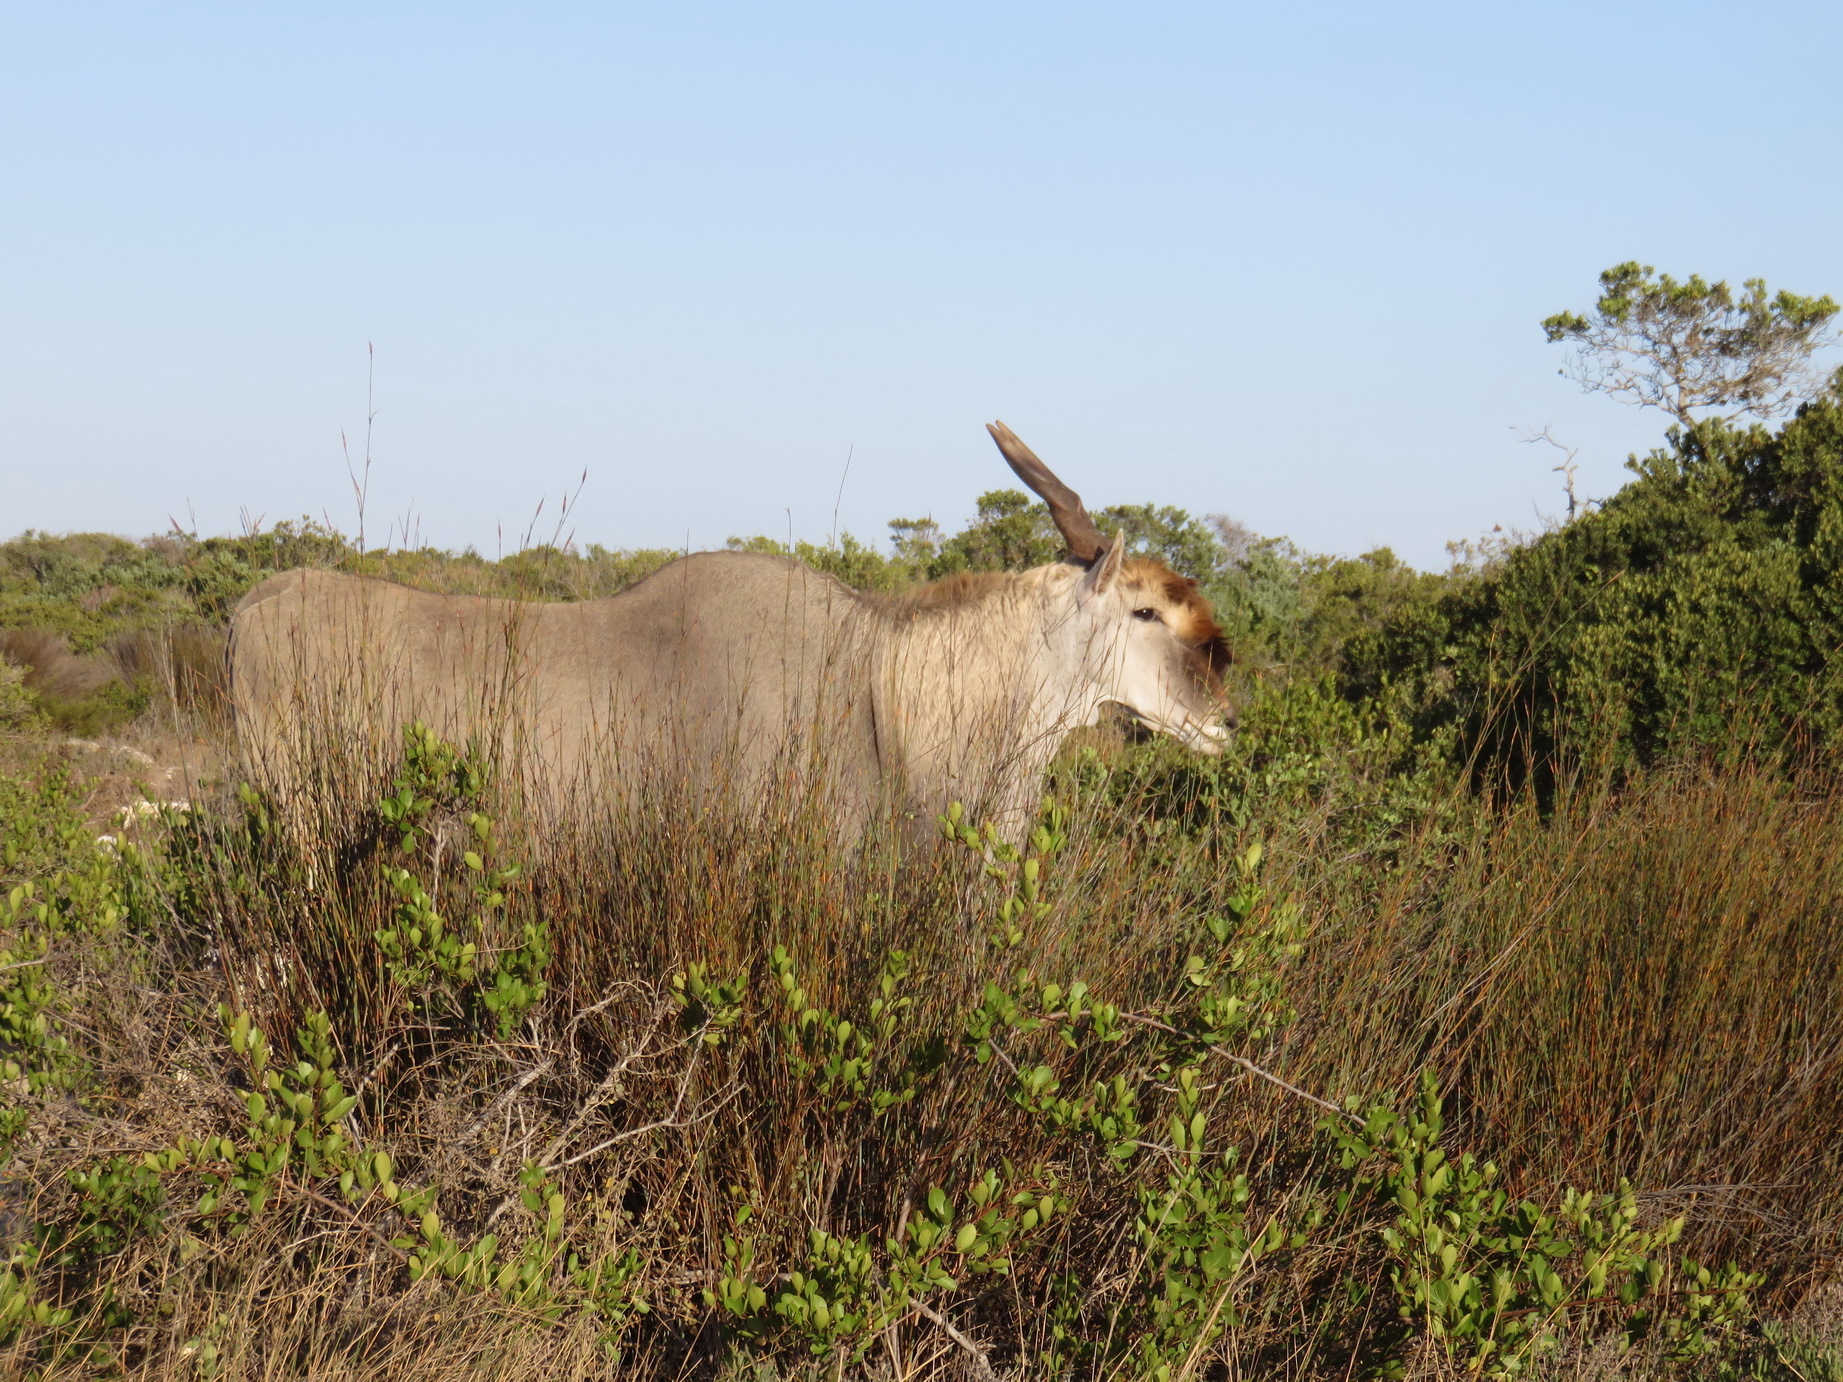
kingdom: Animalia
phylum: Chordata
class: Mammalia
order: Artiodactyla
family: Bovidae
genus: Taurotragus
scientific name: Taurotragus oryx
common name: Common eland
